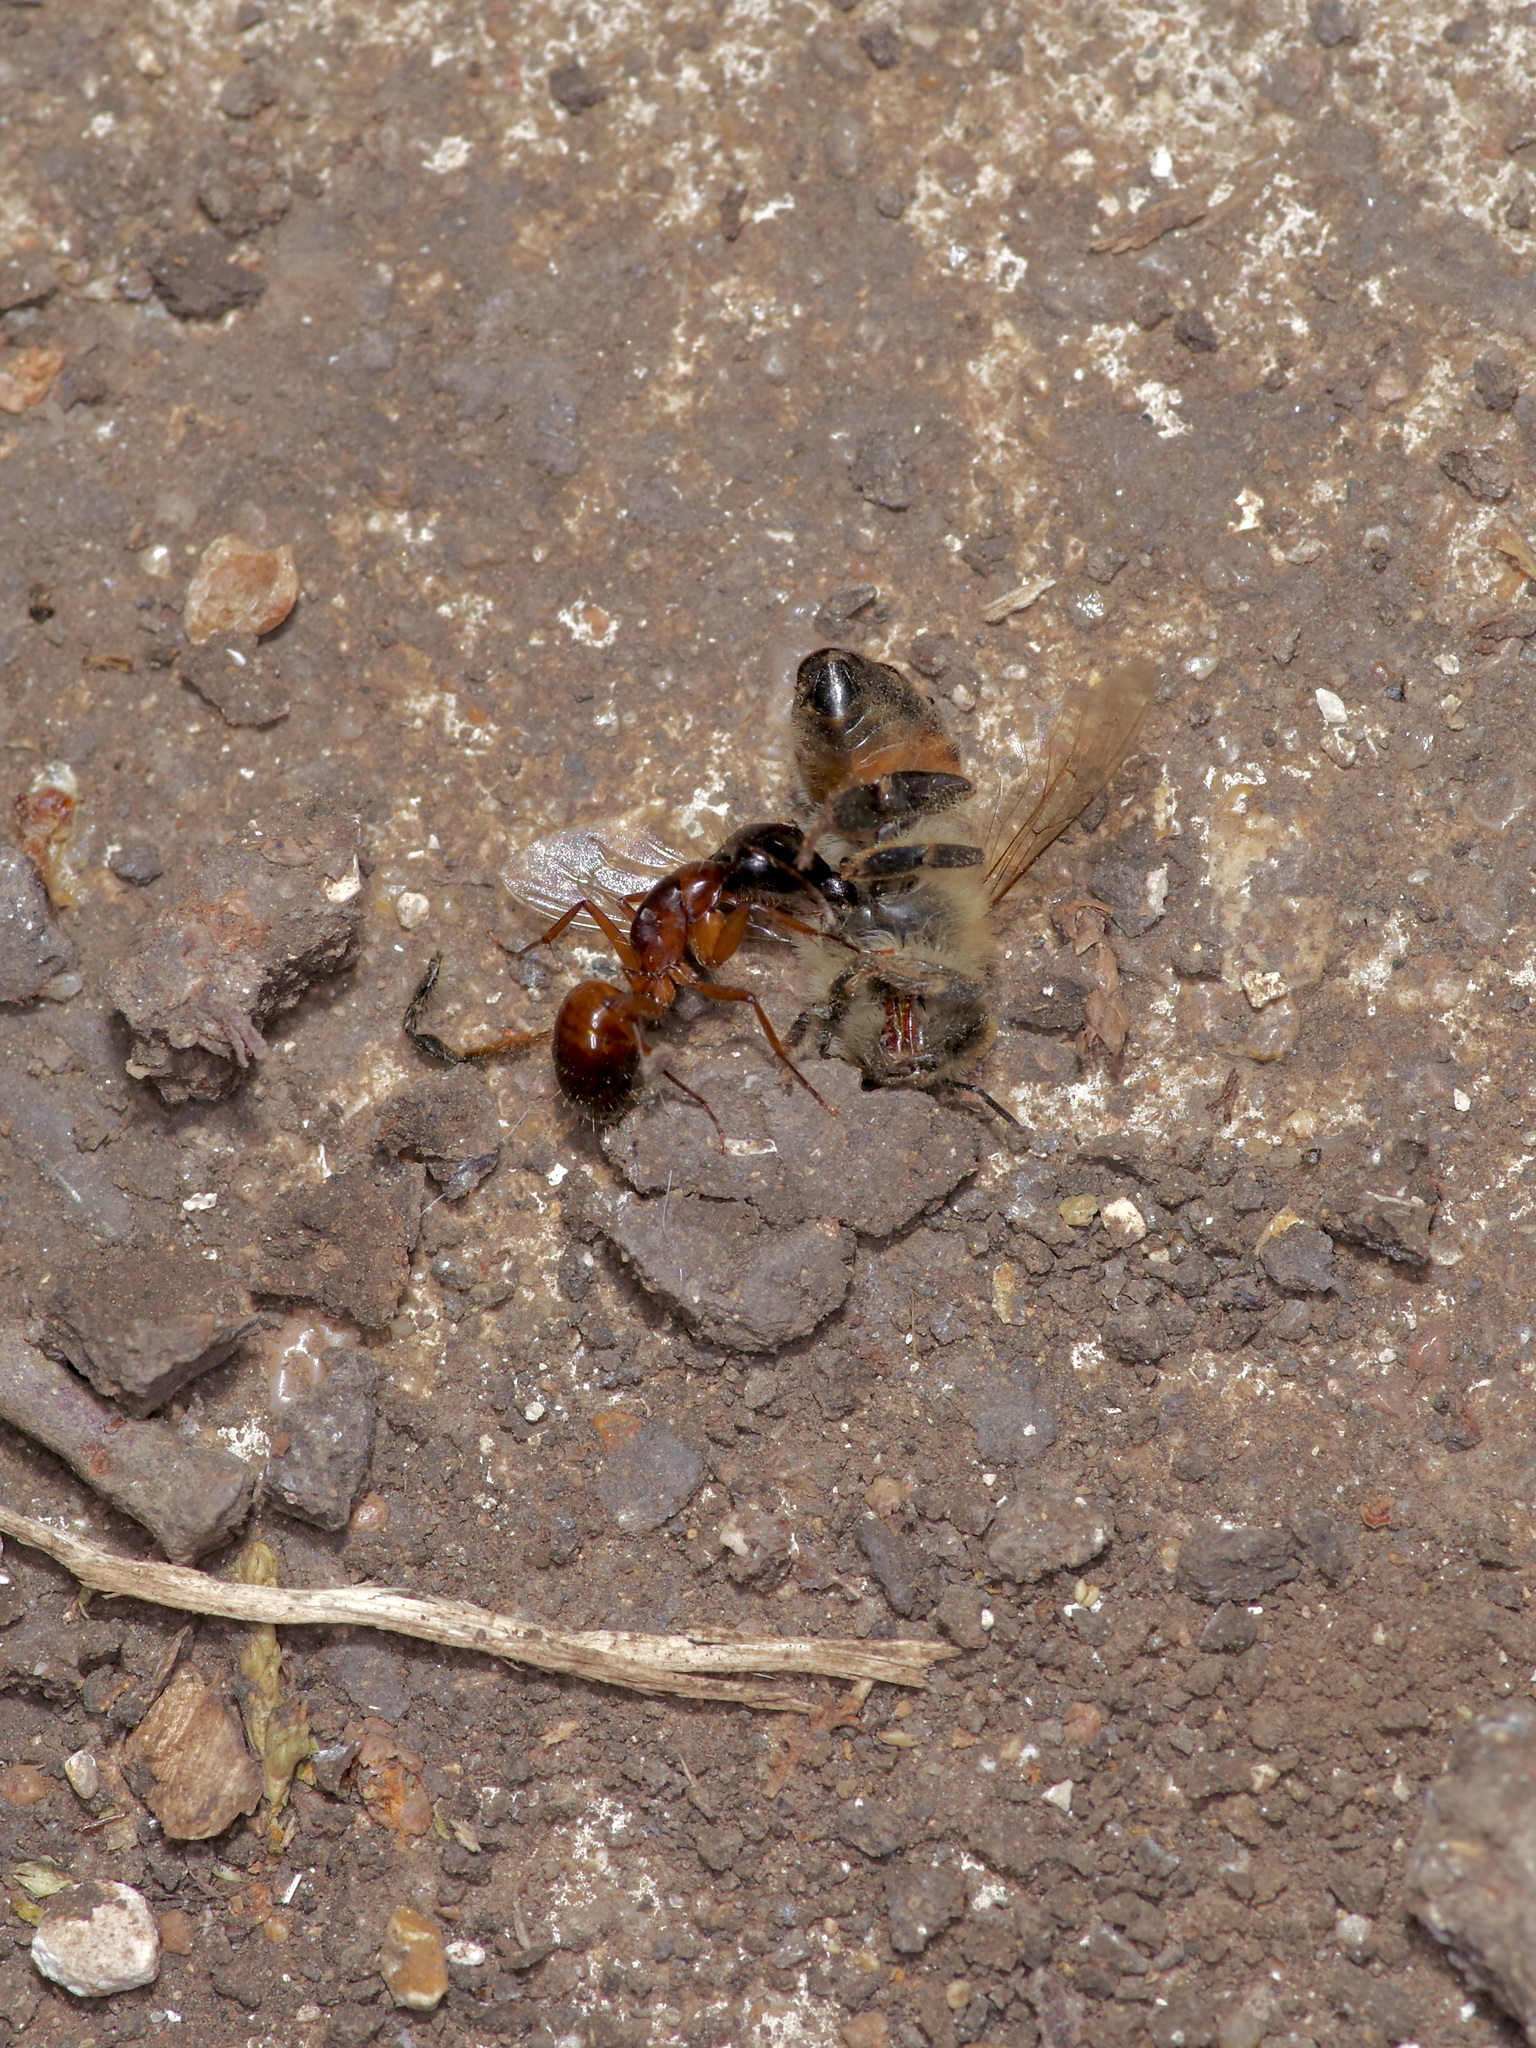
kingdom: Animalia
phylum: Arthropoda
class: Insecta
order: Hymenoptera
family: Formicidae
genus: Camponotus
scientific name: Camponotus sansabeanus
